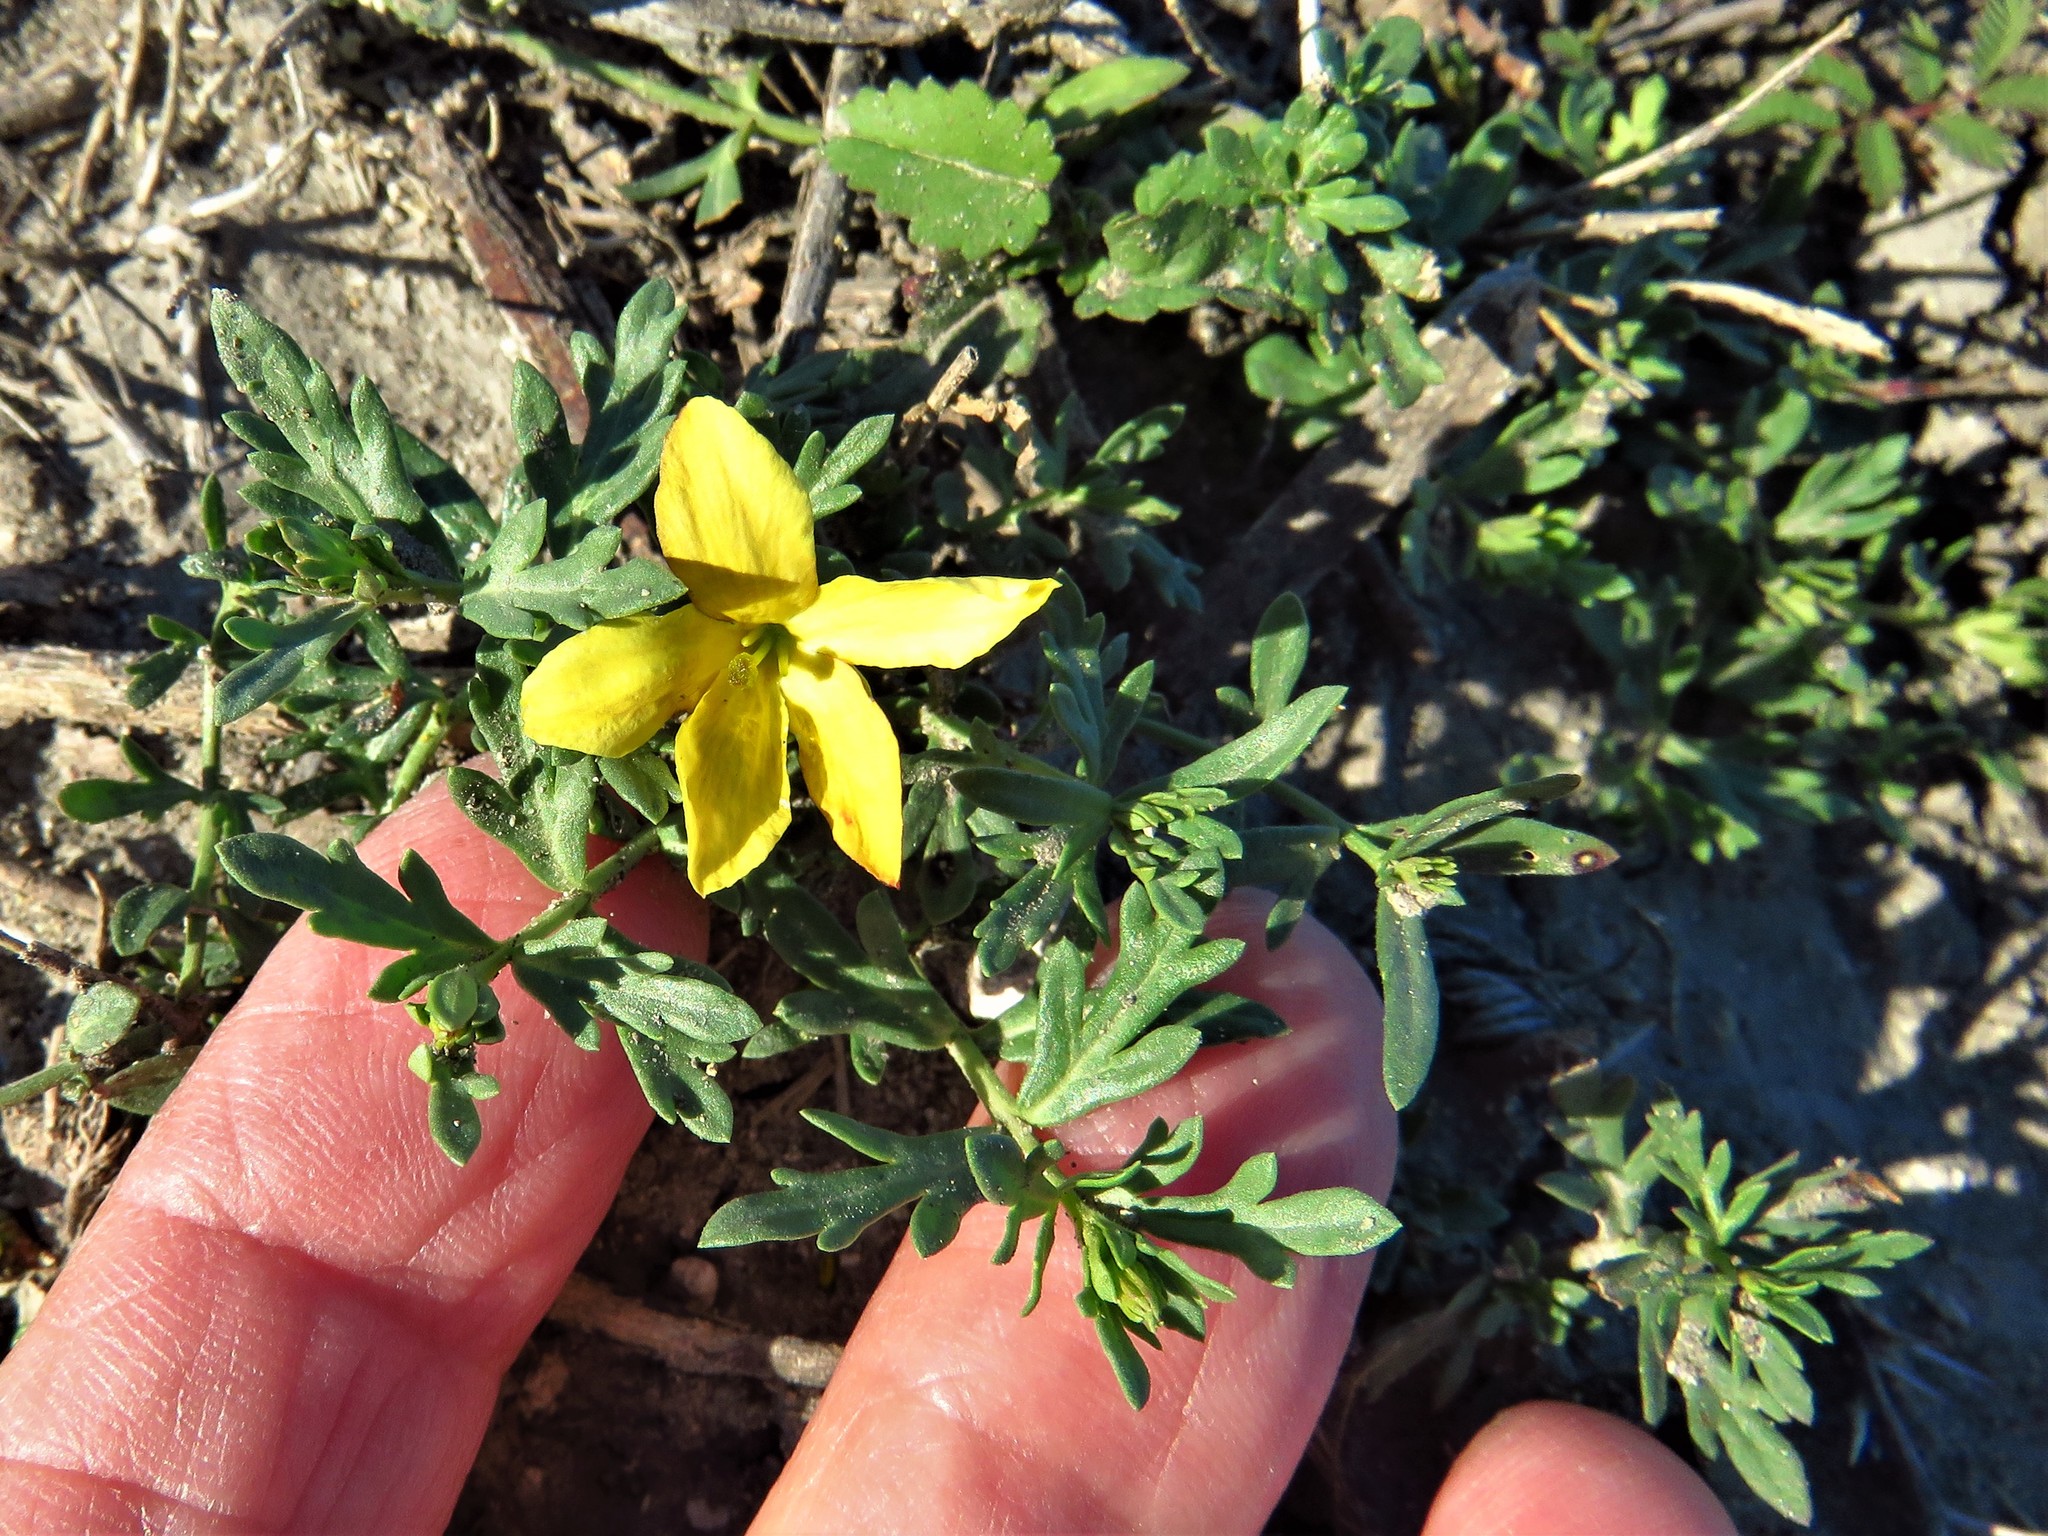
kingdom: Plantae
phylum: Tracheophyta
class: Magnoliopsida
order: Lamiales
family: Oleaceae
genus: Menodora
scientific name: Menodora heterophylla
